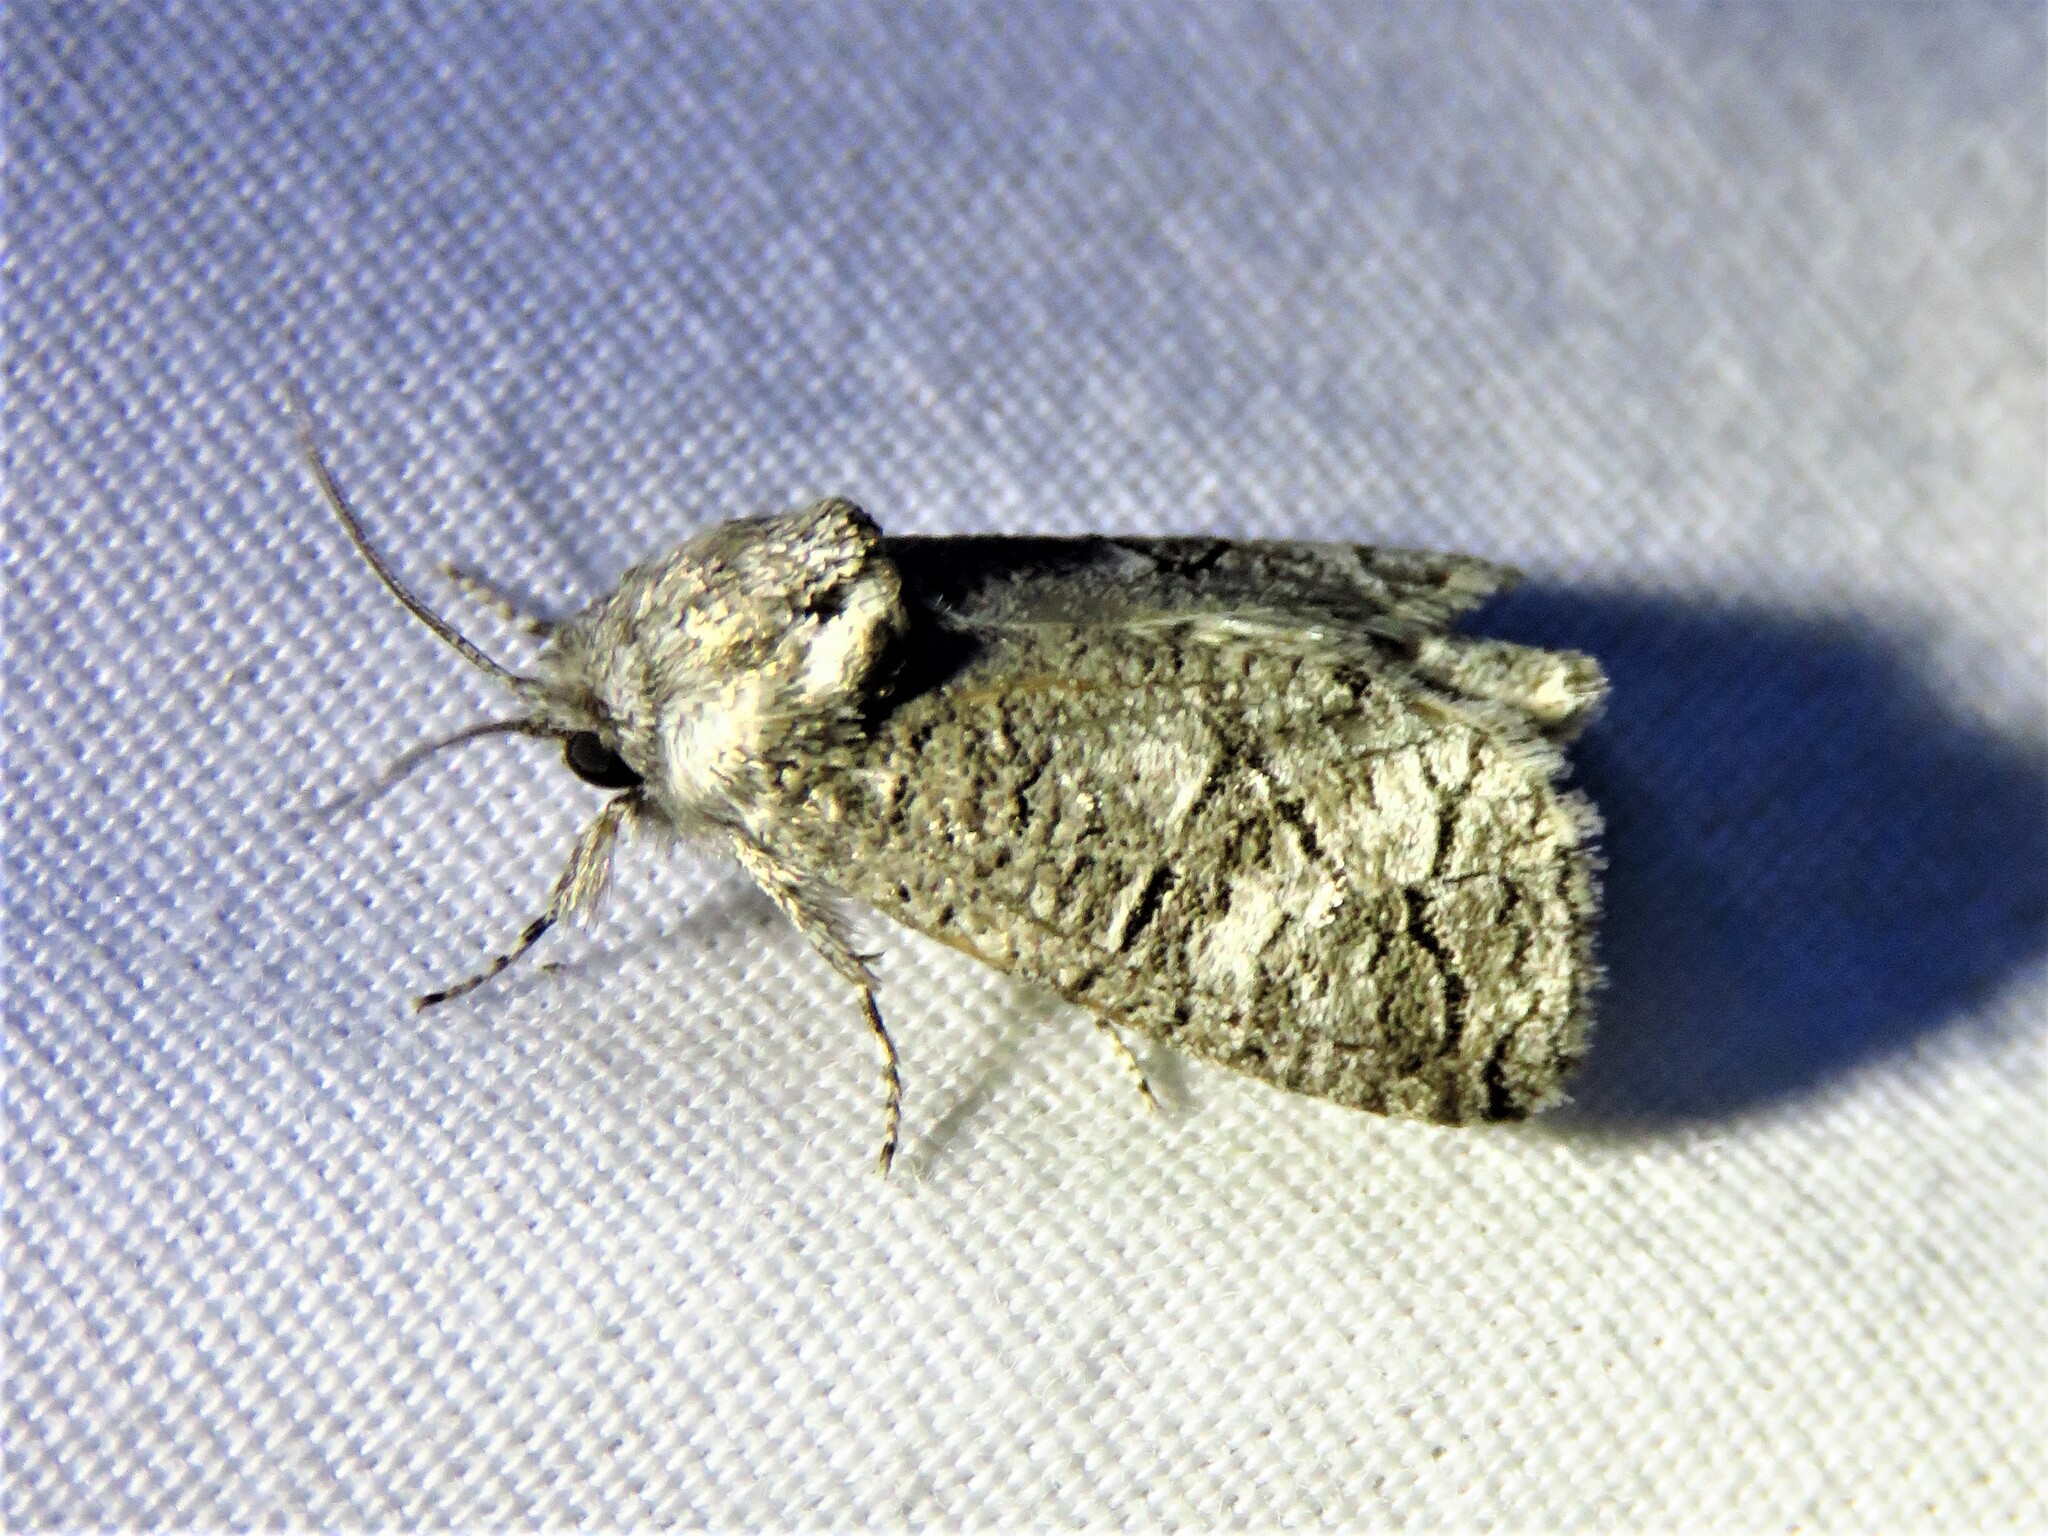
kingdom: Animalia
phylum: Arthropoda
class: Insecta
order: Lepidoptera
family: Cossidae
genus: Fania
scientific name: Fania nanus
